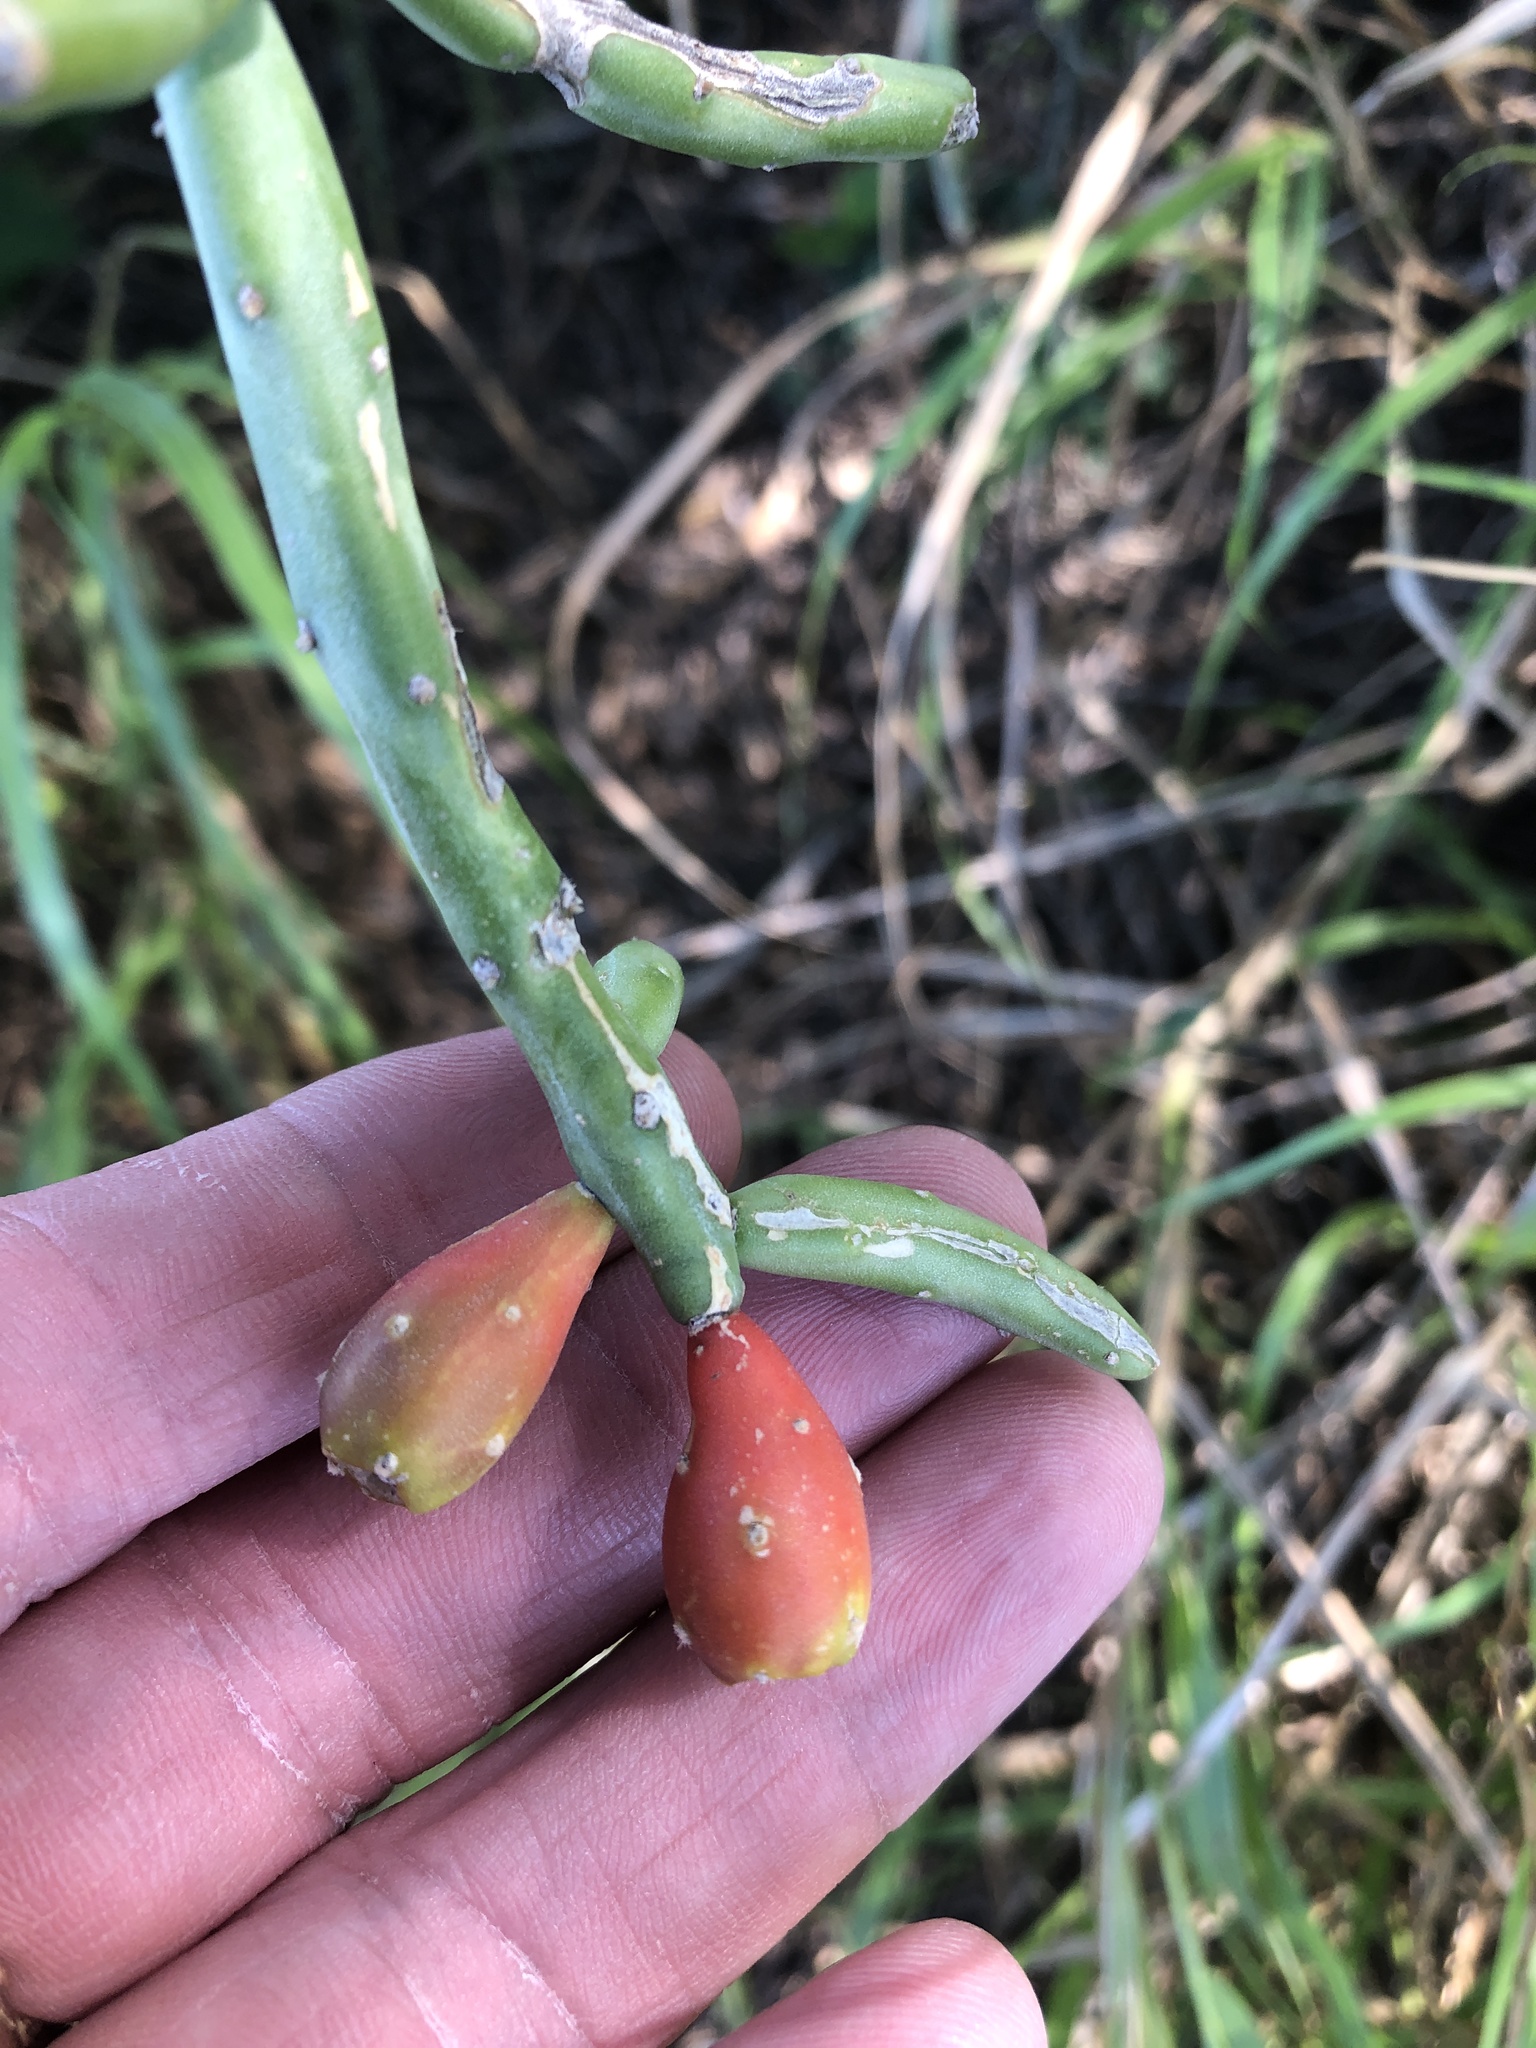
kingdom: Plantae
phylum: Tracheophyta
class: Magnoliopsida
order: Caryophyllales
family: Cactaceae
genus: Cylindropuntia
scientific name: Cylindropuntia leptocaulis
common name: Christmas cactus
